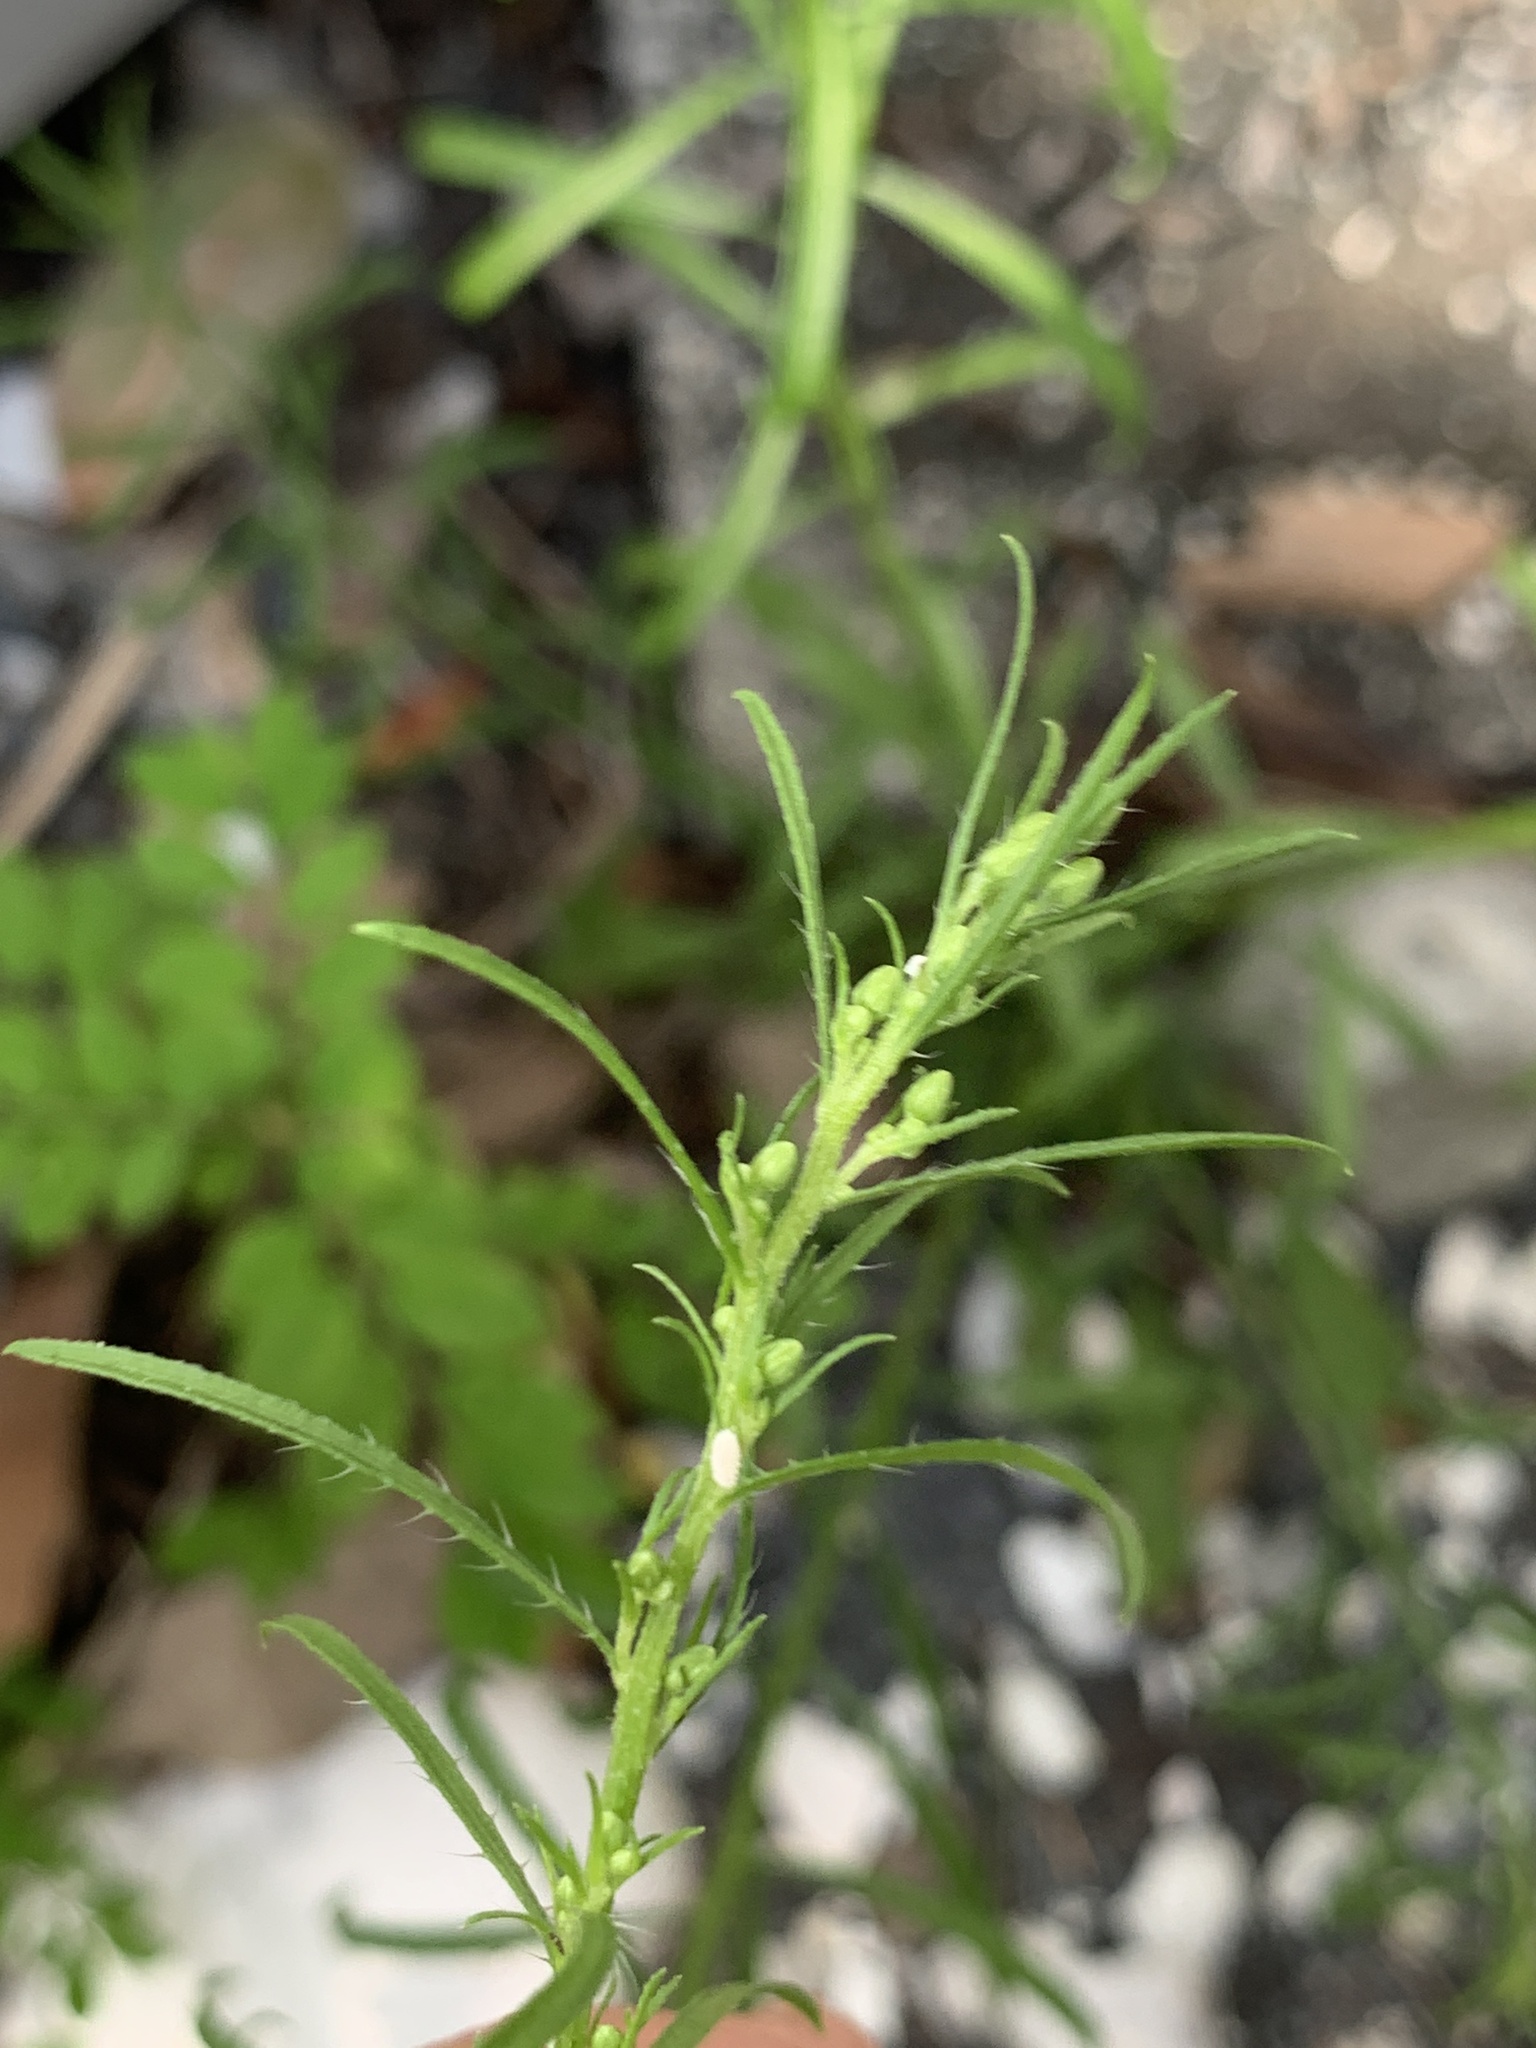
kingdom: Plantae
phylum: Tracheophyta
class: Magnoliopsida
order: Asterales
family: Asteraceae
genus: Erigeron
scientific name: Erigeron canadensis
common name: Canadian fleabane
